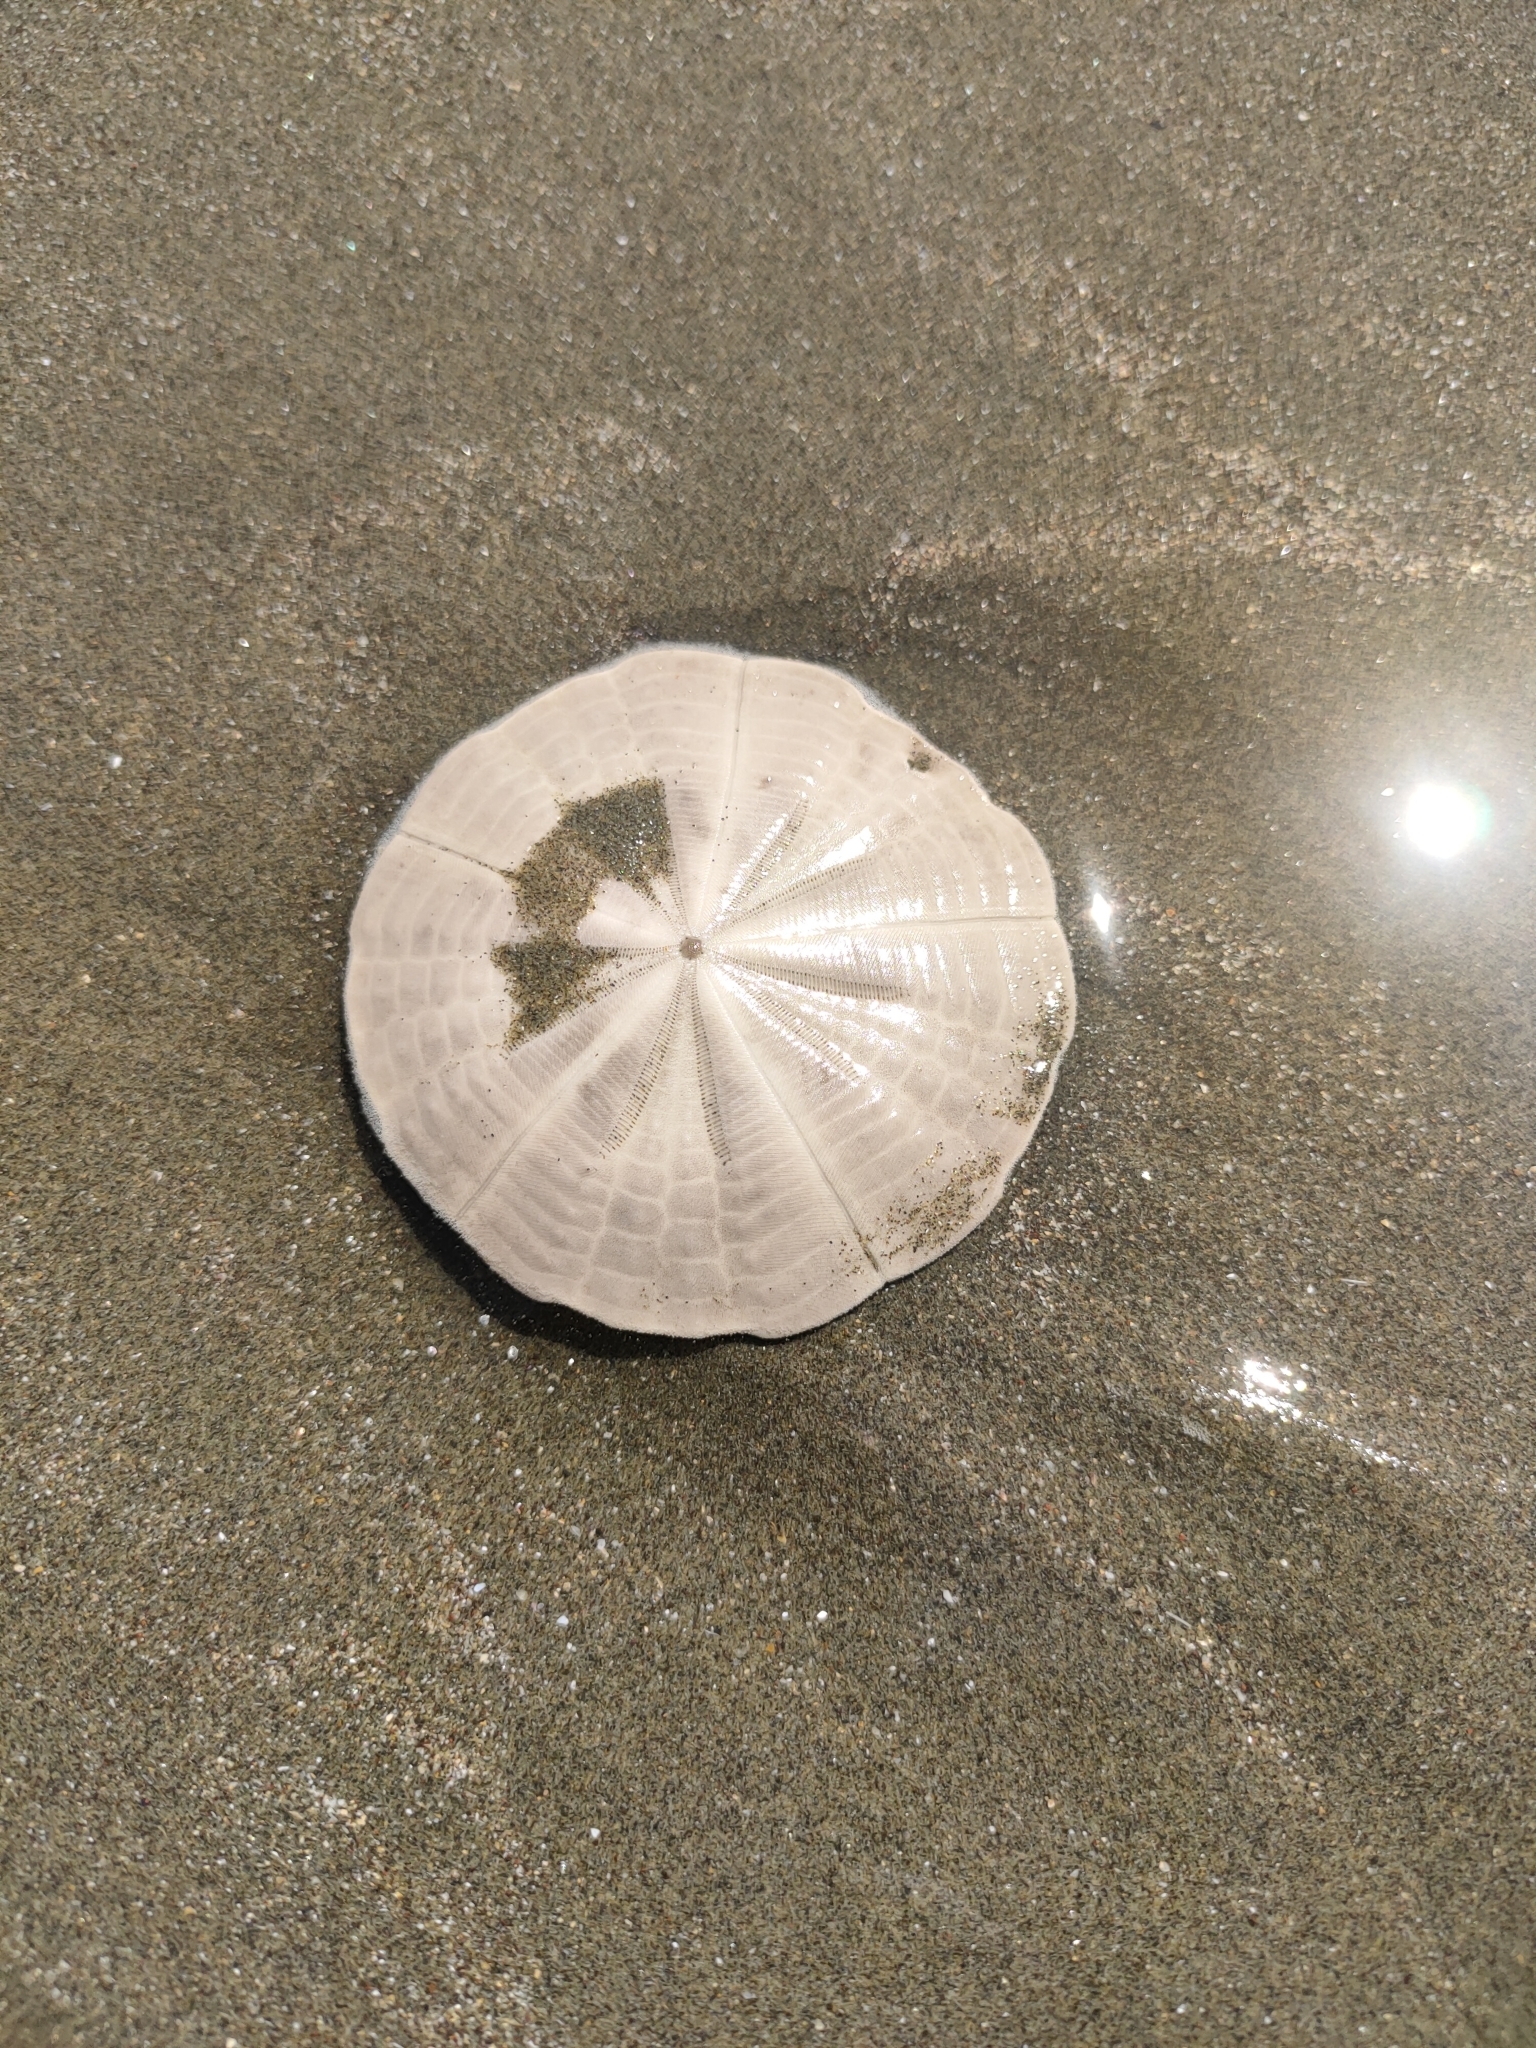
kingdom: Animalia
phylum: Echinodermata
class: Echinoidea
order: Clypeasteroida
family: Clypeasteridae
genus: Fellaster
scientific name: Fellaster zelandiae
